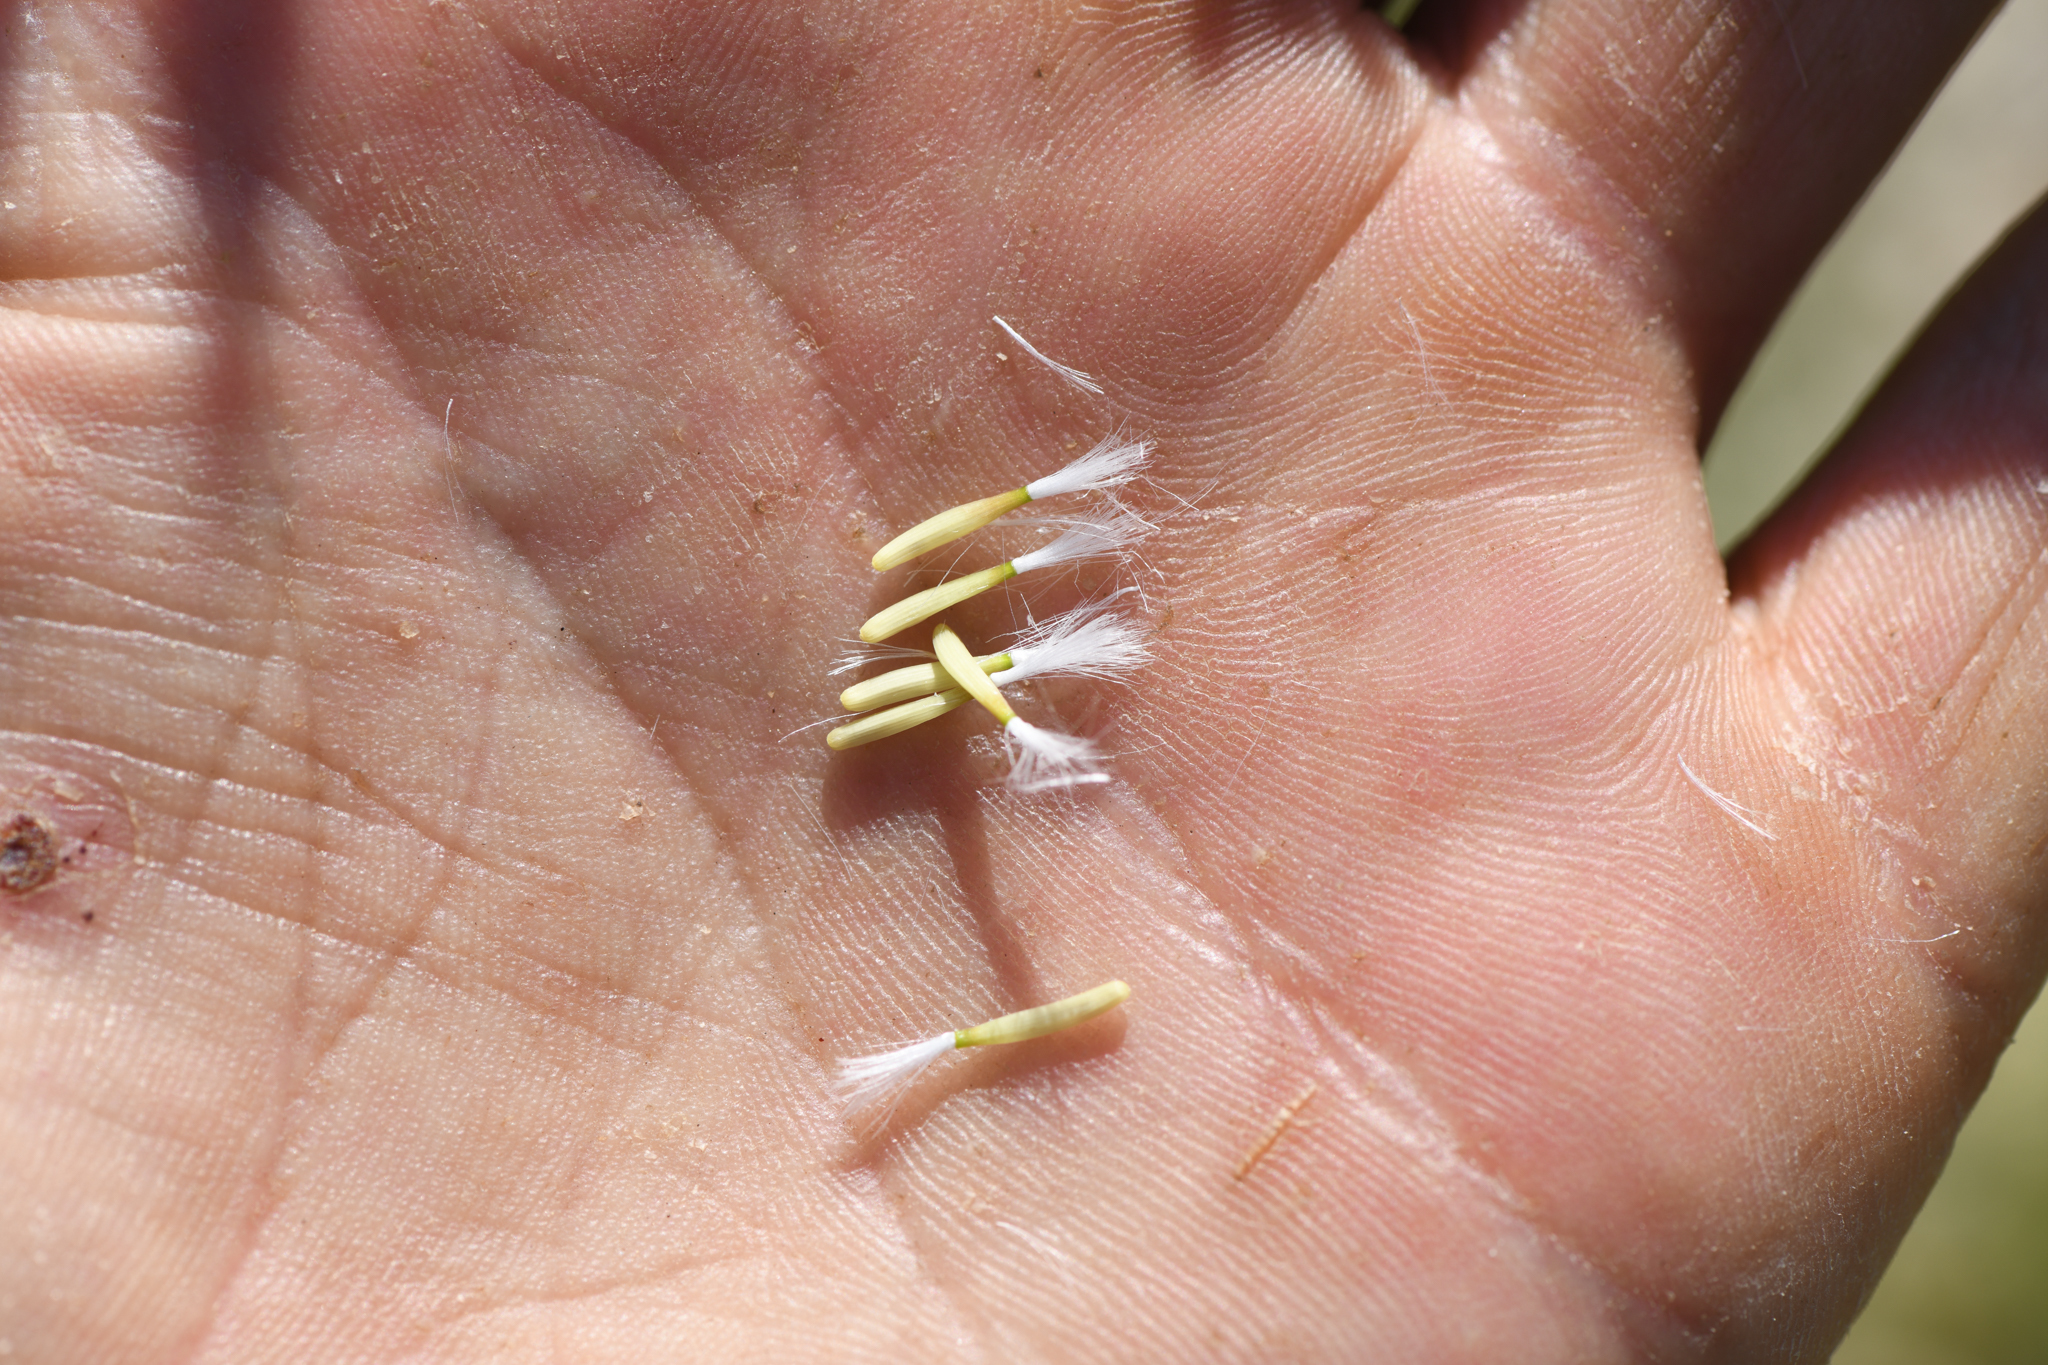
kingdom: Plantae
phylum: Tracheophyta
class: Magnoliopsida
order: Asterales
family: Asteraceae
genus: Crepis
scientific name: Crepis runcinata
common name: Dandelion hawksbeard
